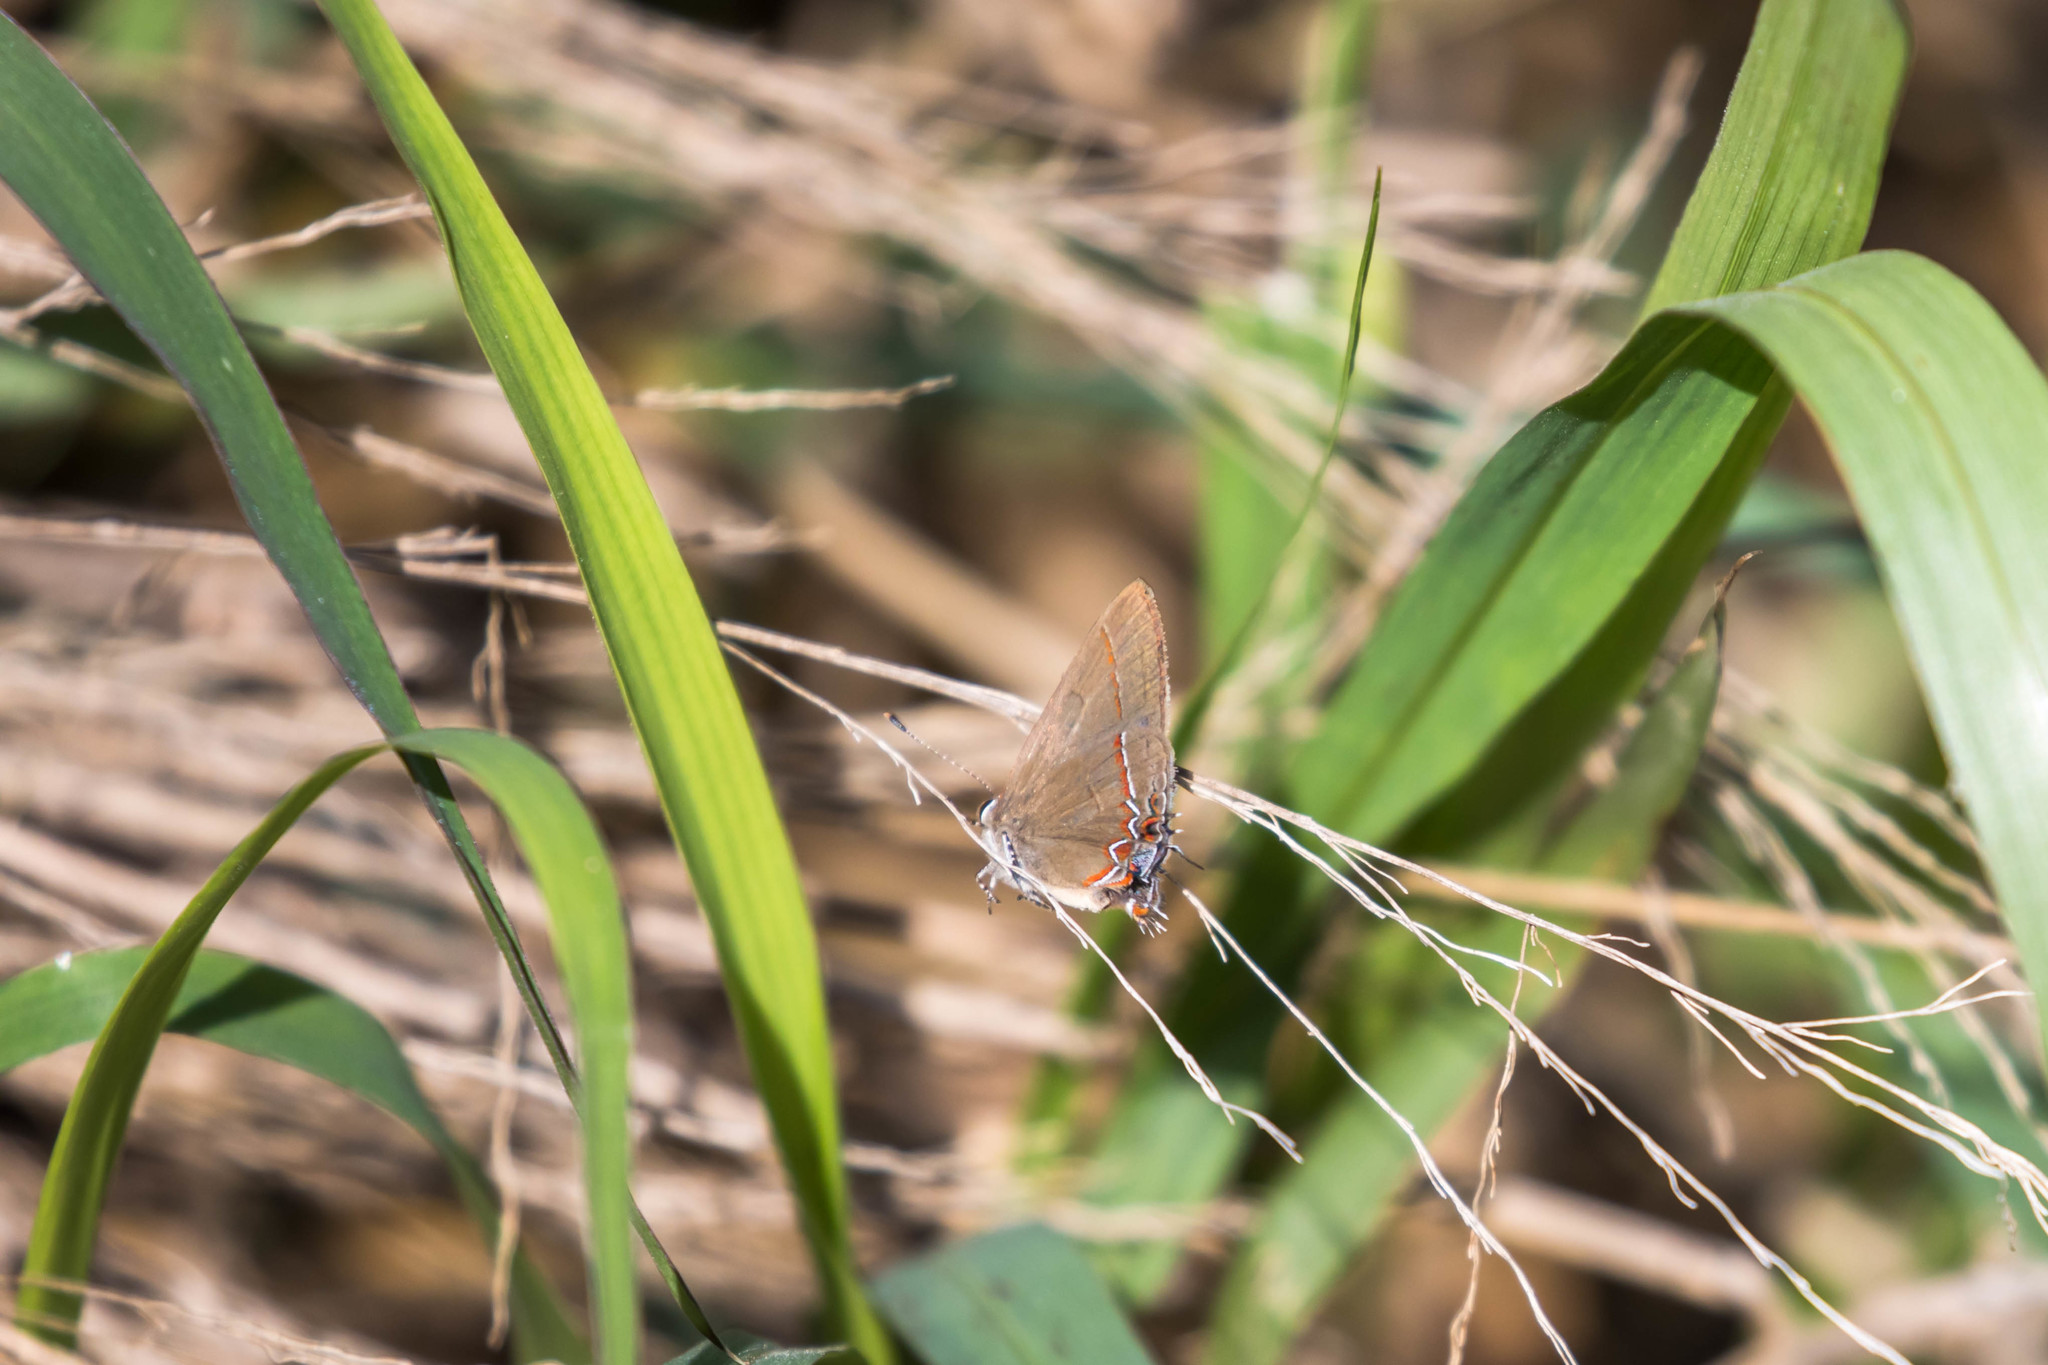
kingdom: Animalia
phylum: Arthropoda
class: Insecta
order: Lepidoptera
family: Lycaenidae
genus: Calycopis
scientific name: Calycopis isobeon
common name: Dusky-blue groundstreak
